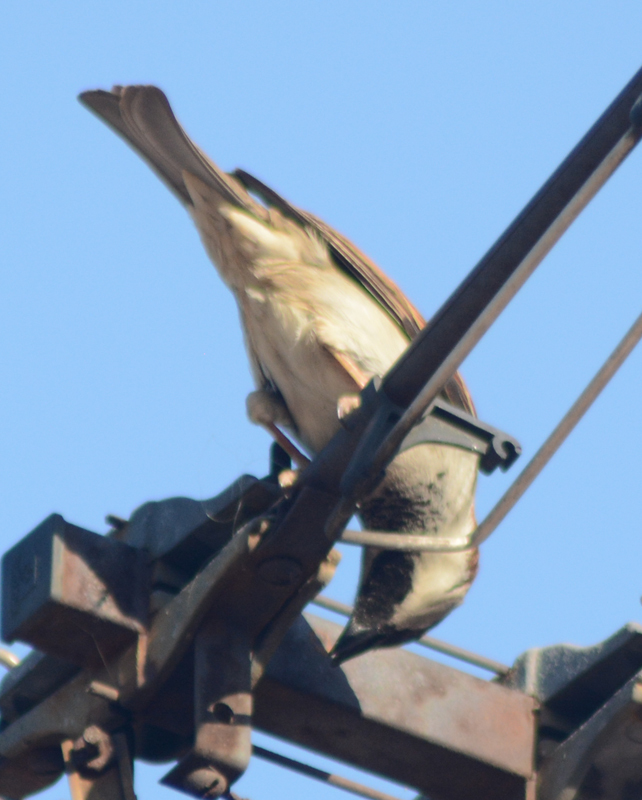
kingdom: Animalia
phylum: Chordata
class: Aves
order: Passeriformes
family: Passeridae
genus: Passer
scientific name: Passer domesticus
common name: House sparrow
